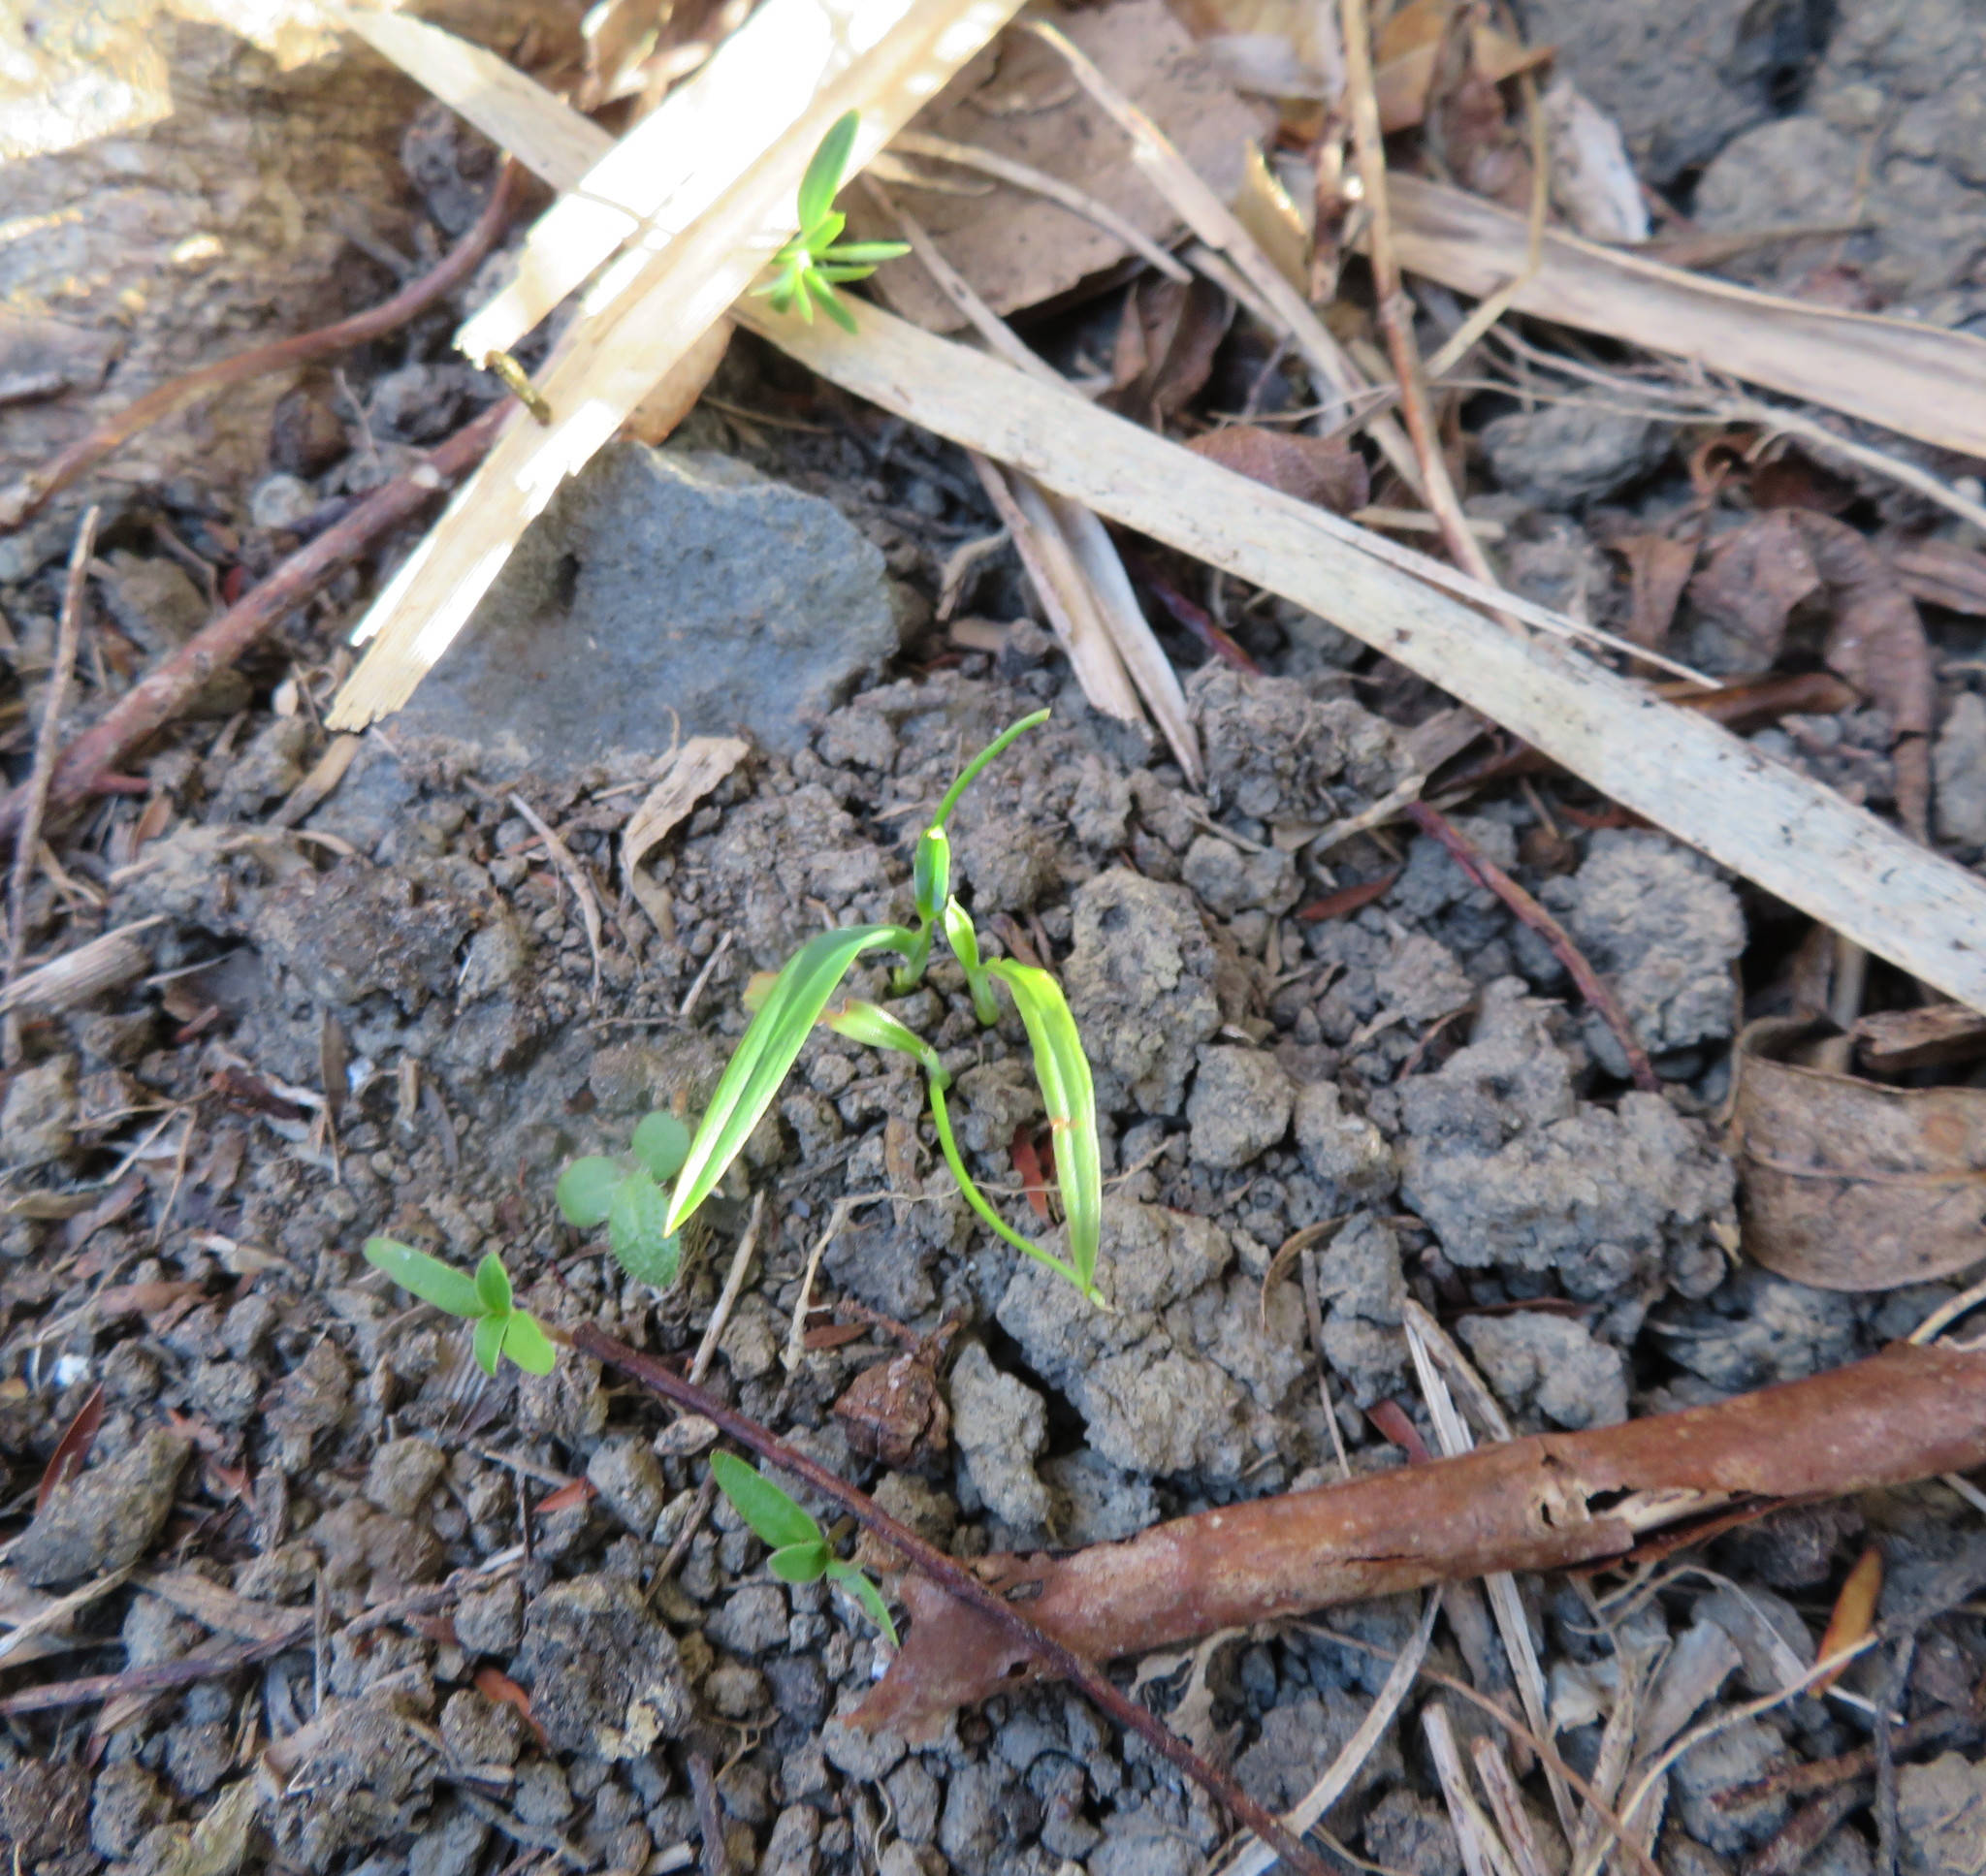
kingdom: Plantae
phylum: Tracheophyta
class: Liliopsida
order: Asparagales
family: Asparagaceae
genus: Cordyline
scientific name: Cordyline australis
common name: Cabbage-palm
